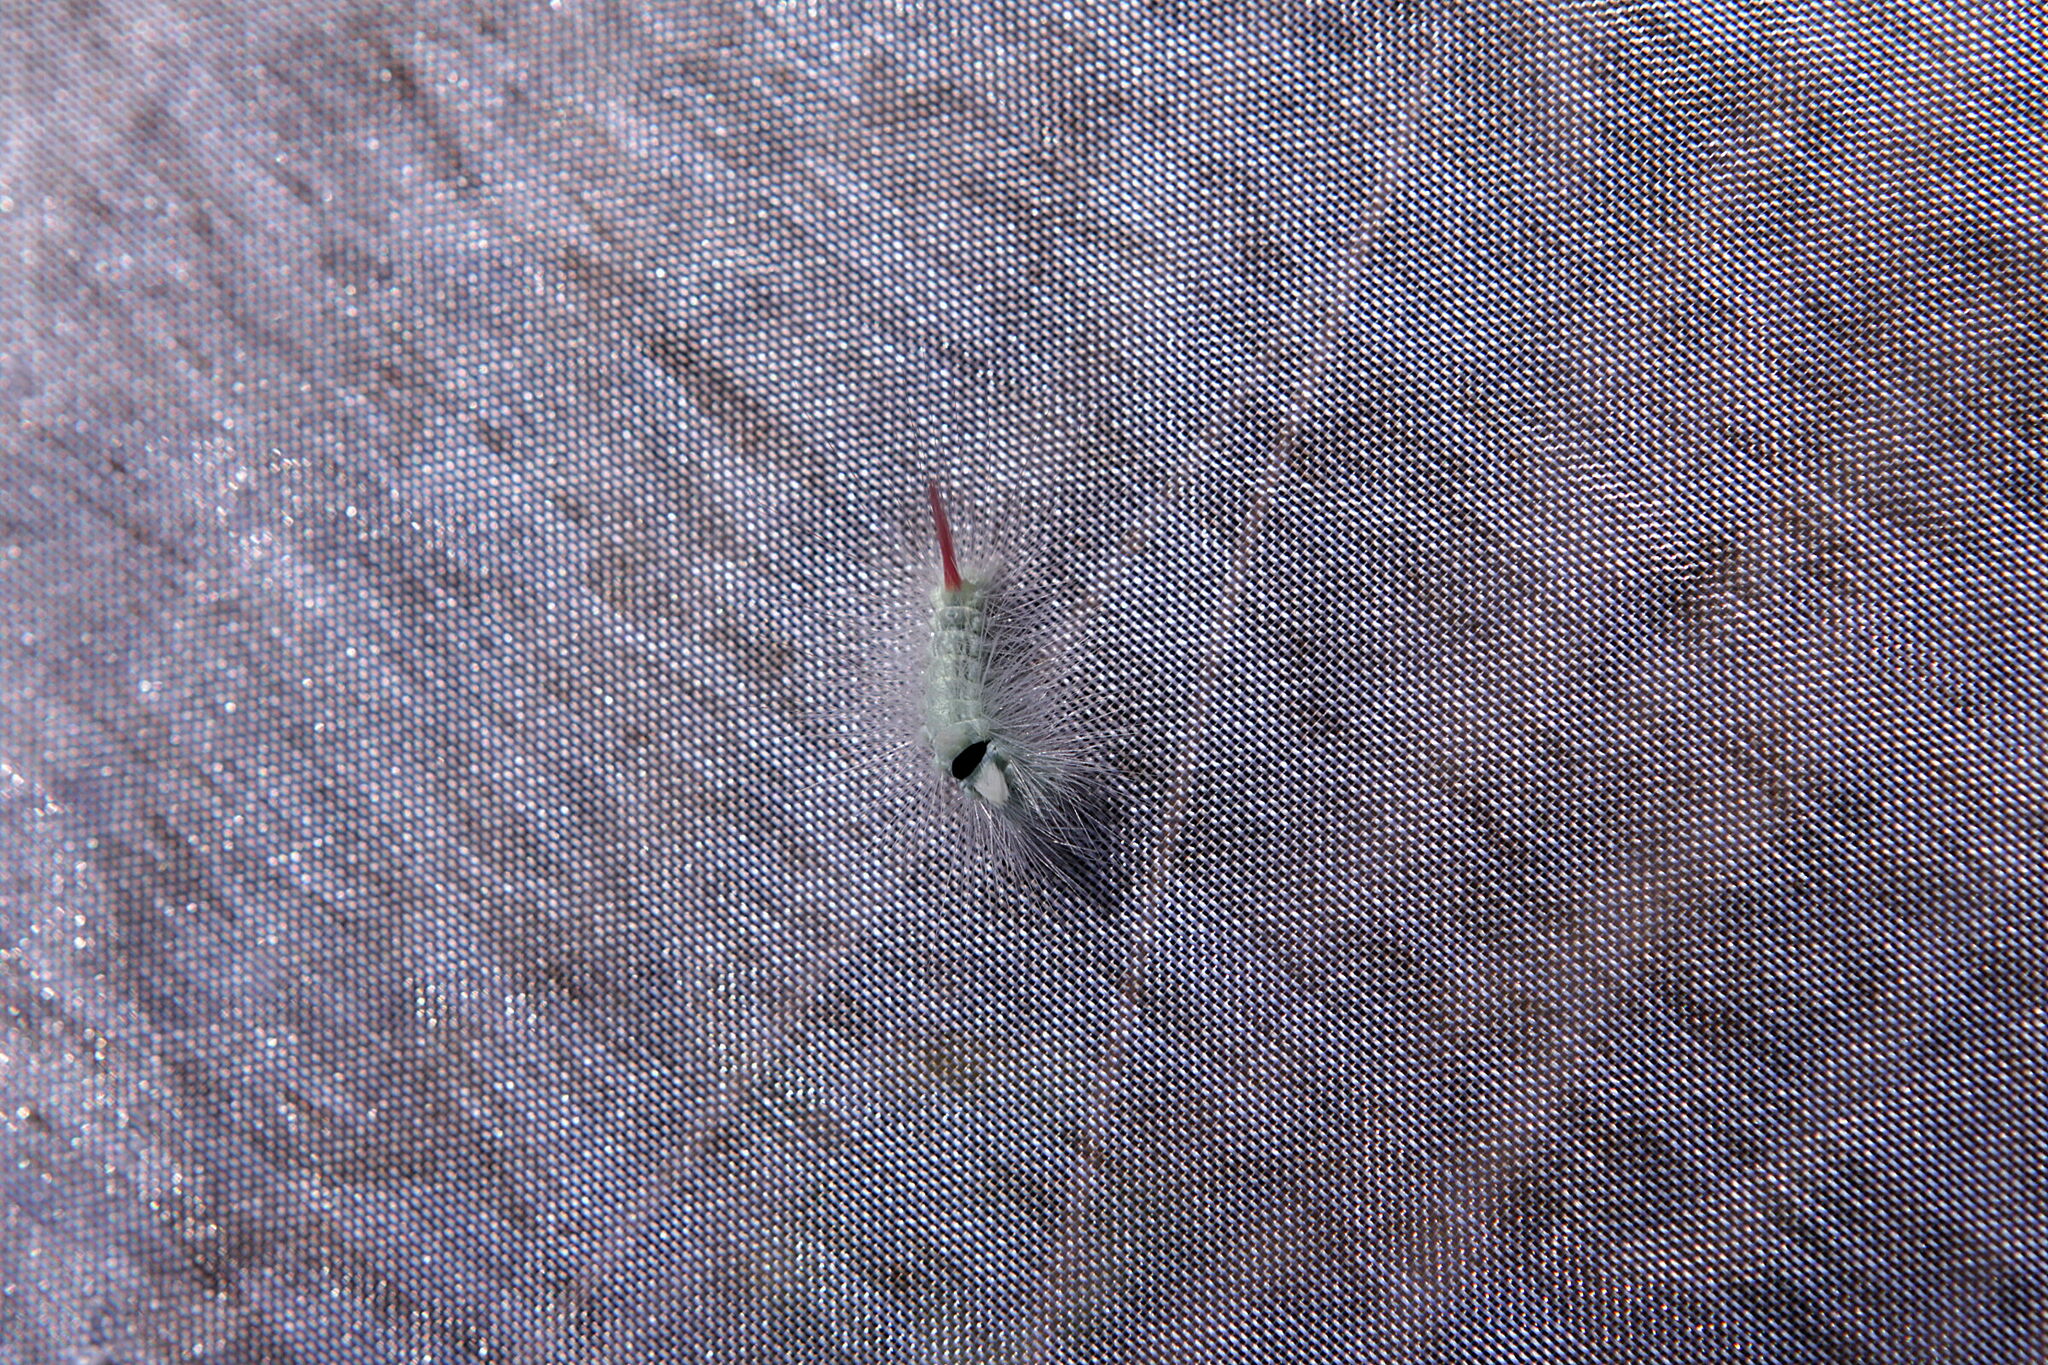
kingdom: Animalia
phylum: Arthropoda
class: Insecta
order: Lepidoptera
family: Erebidae
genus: Calliteara
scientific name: Calliteara pudibunda
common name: Pale tussock
